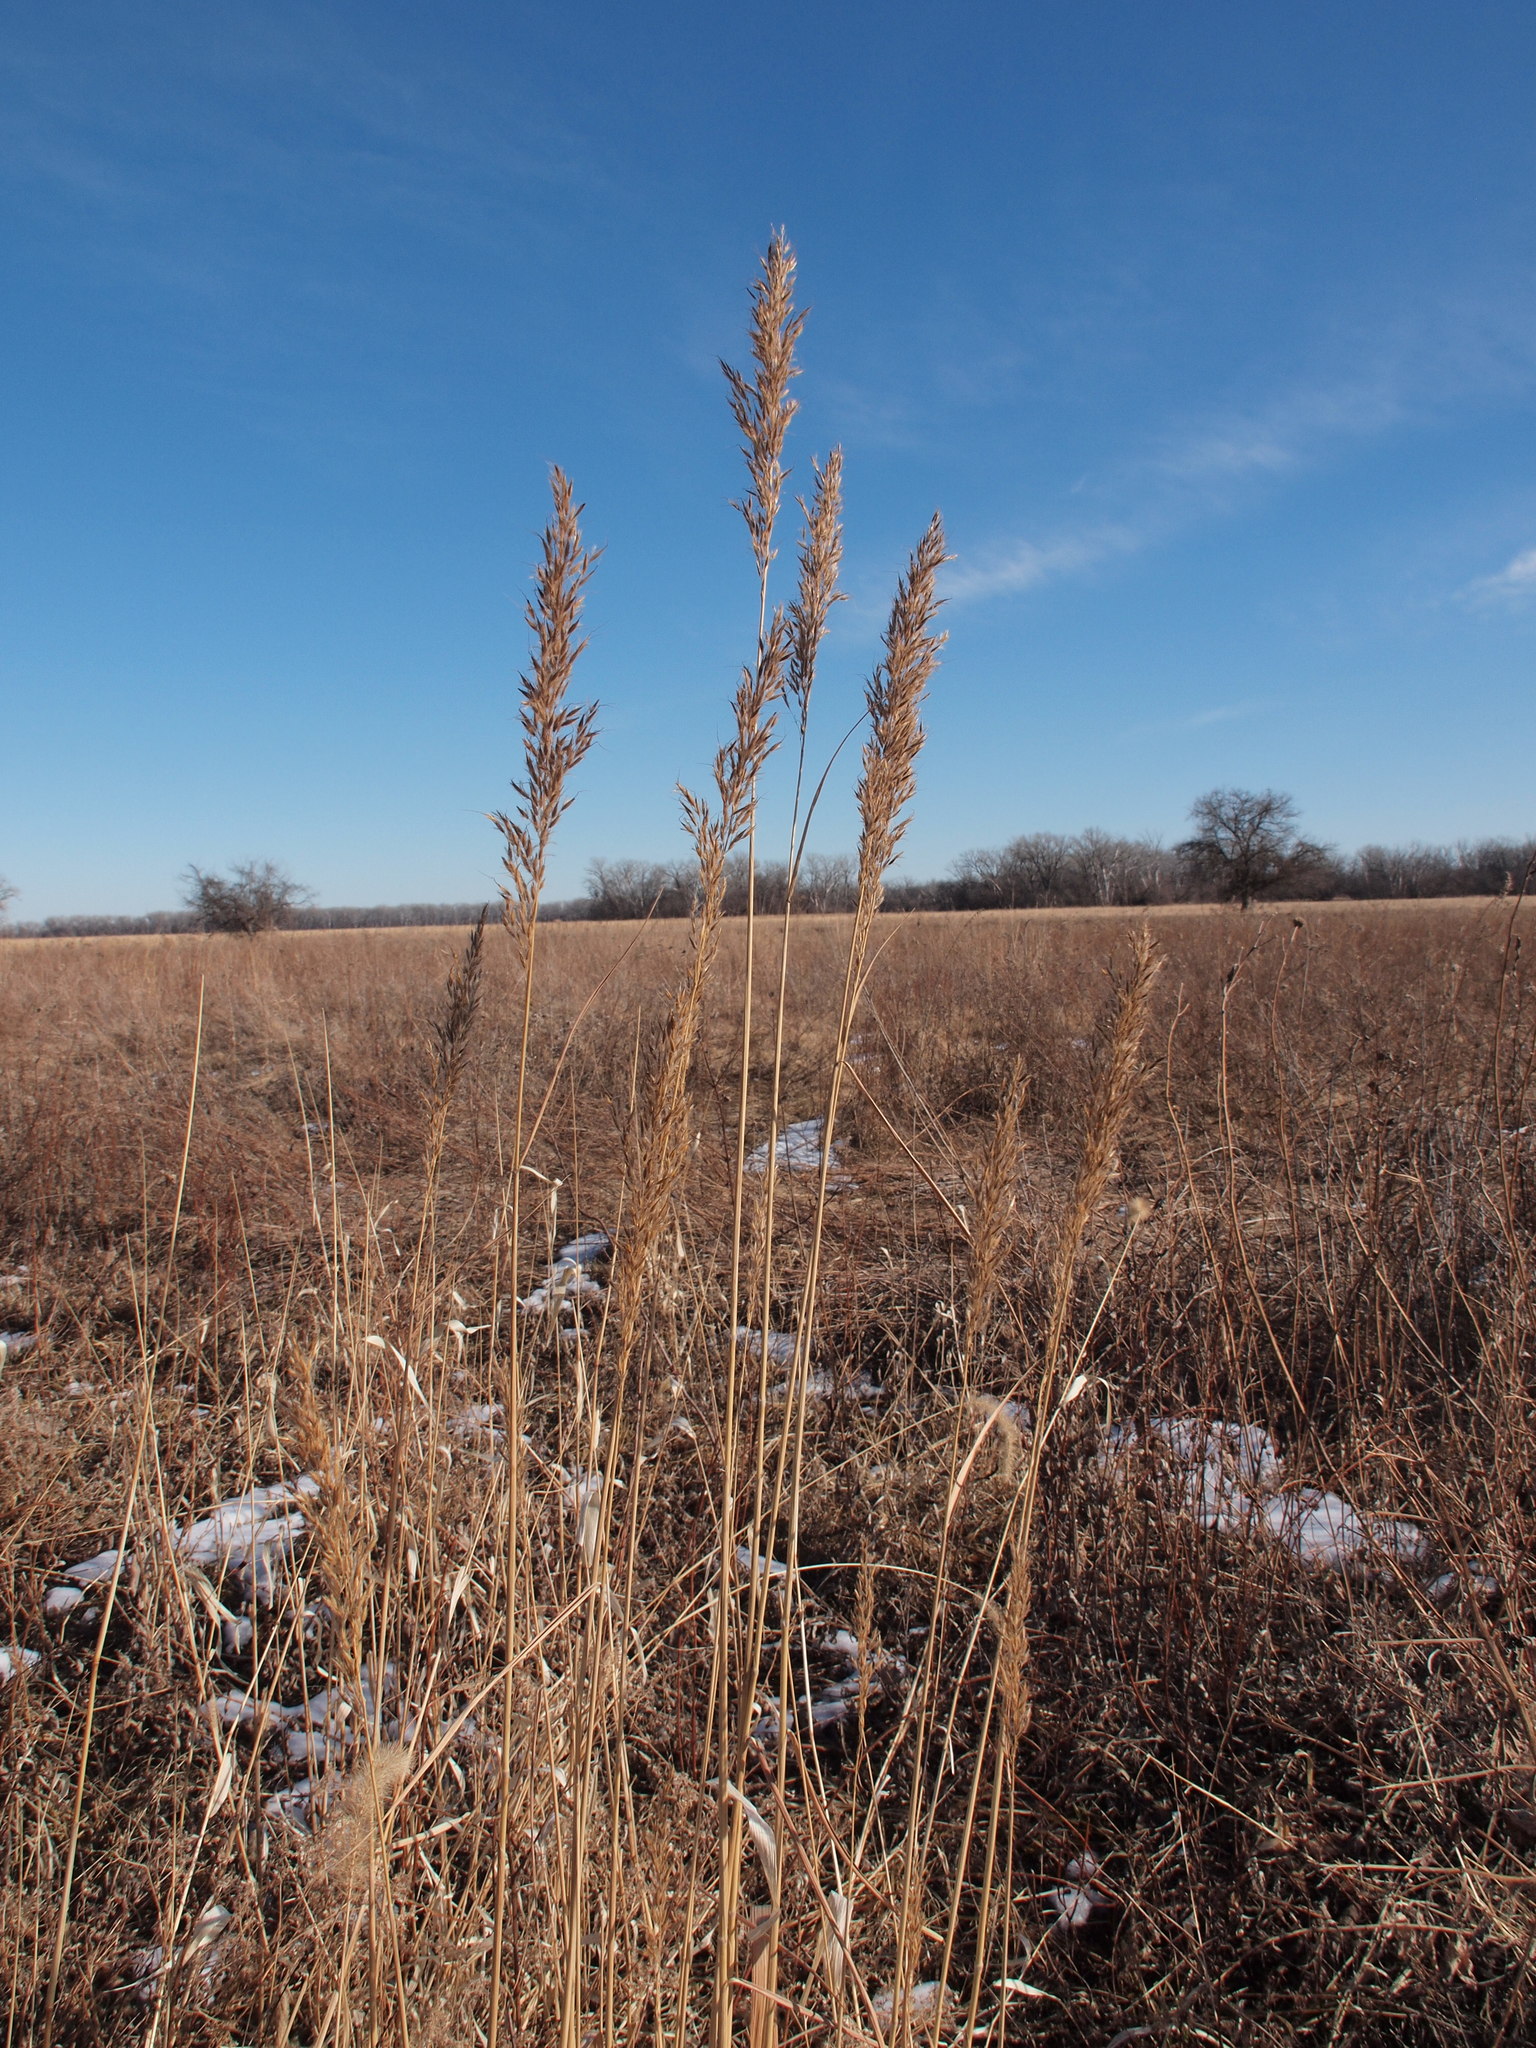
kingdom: Plantae
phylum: Tracheophyta
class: Liliopsida
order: Poales
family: Poaceae
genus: Sorghastrum
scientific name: Sorghastrum nutans
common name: Indian grass
